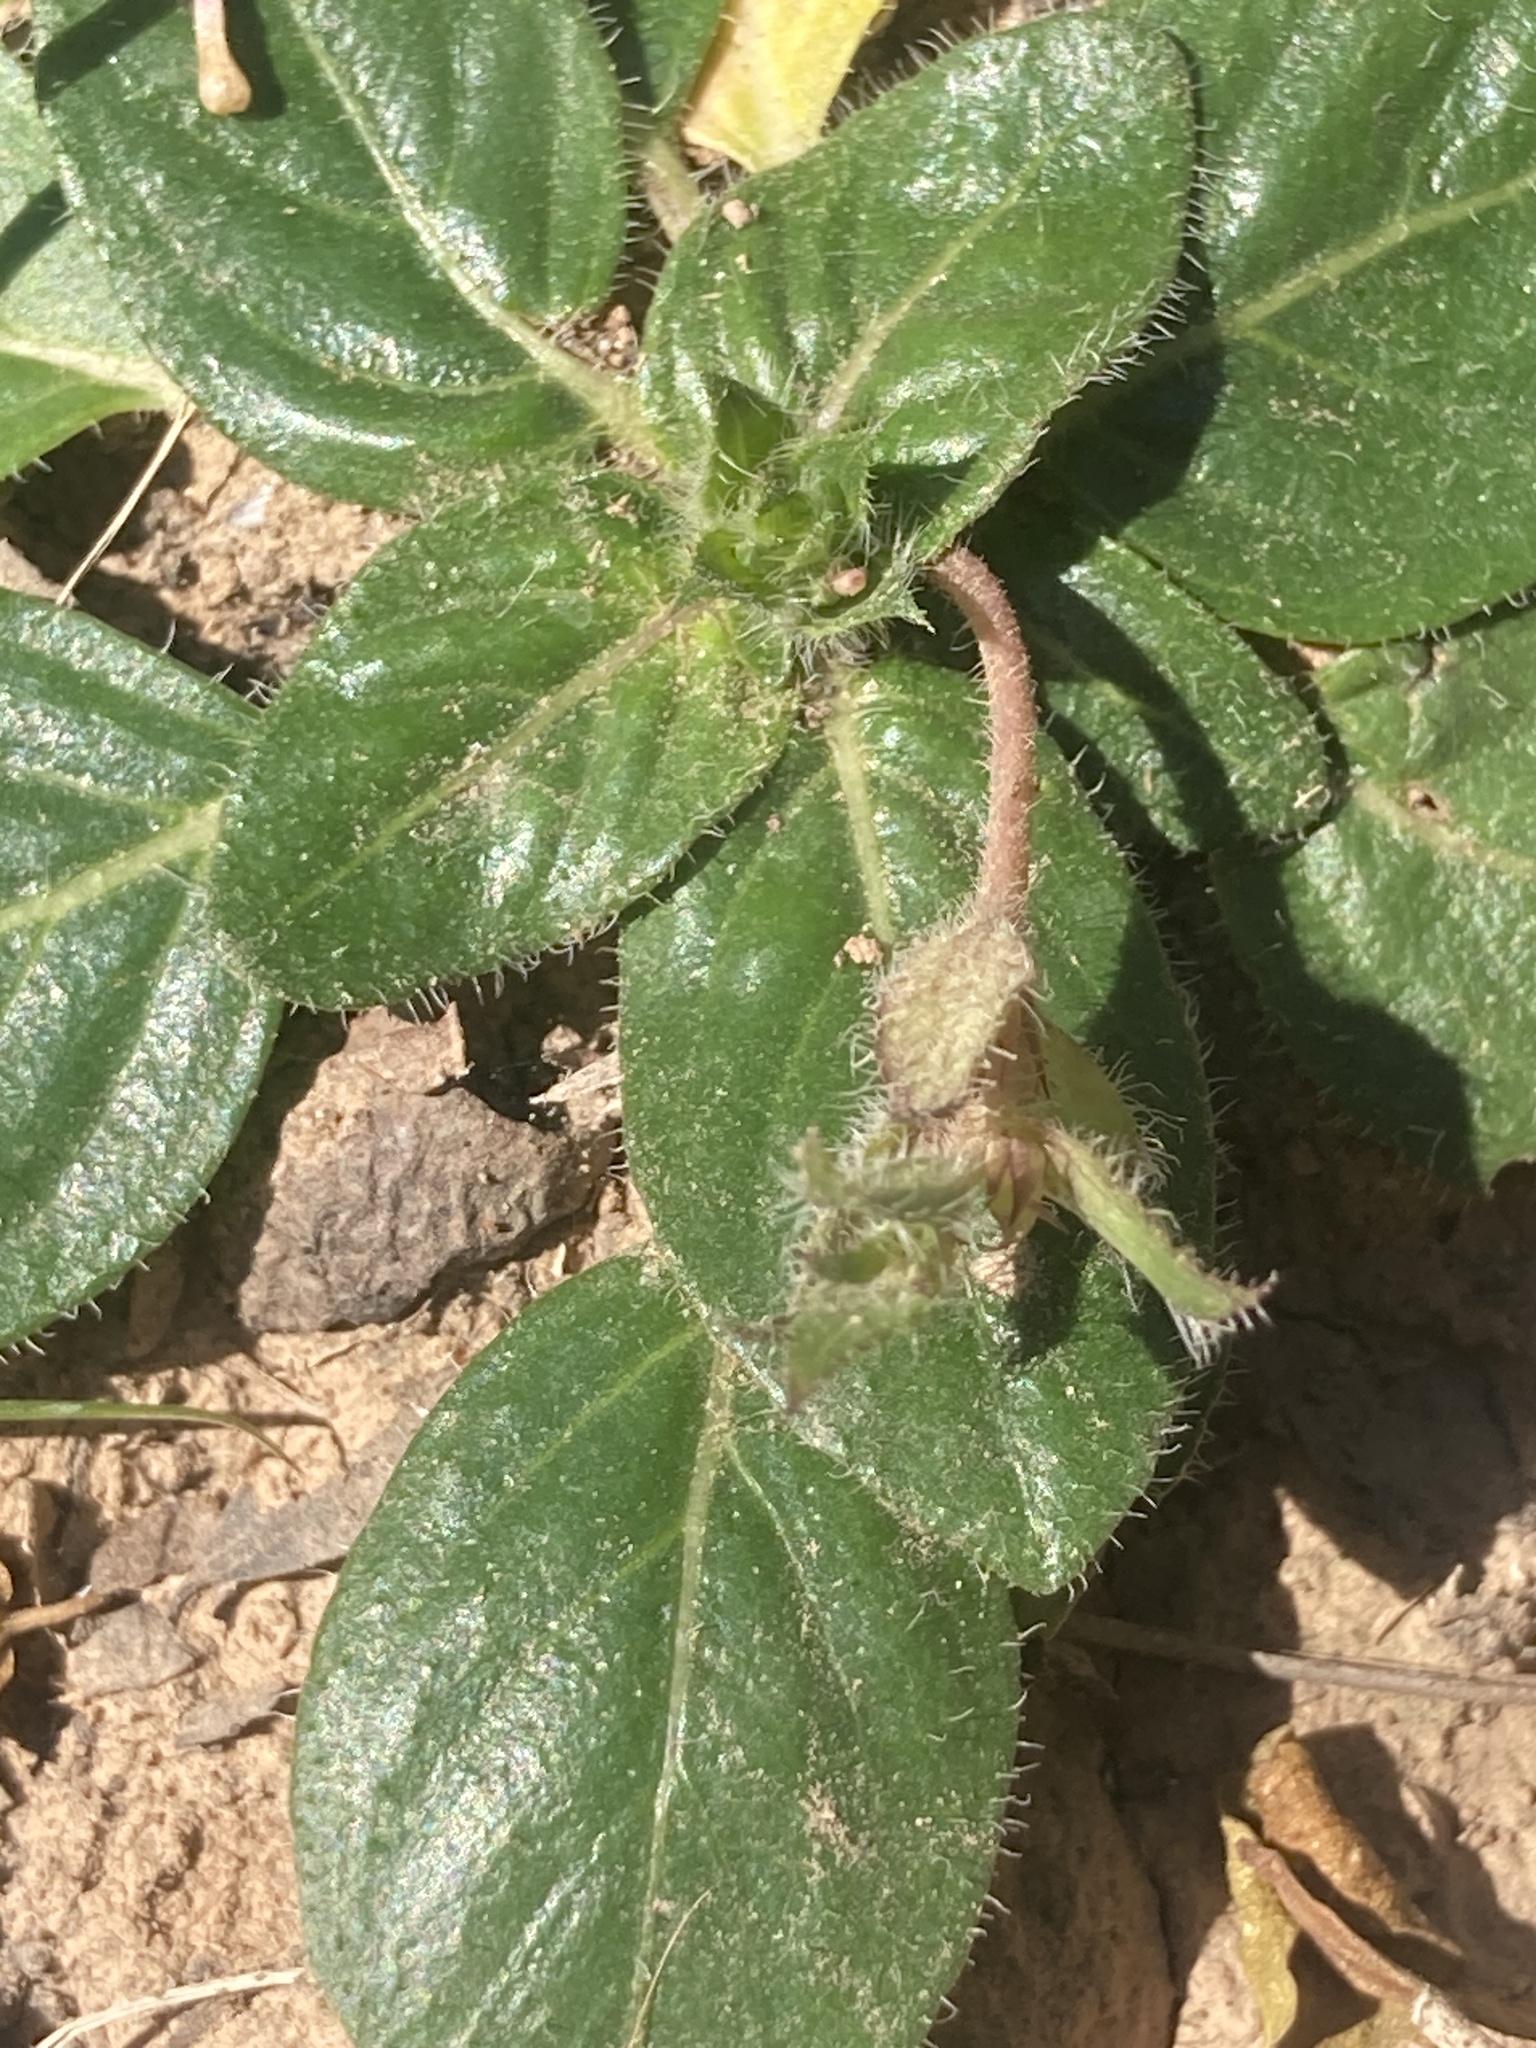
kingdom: Plantae
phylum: Tracheophyta
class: Magnoliopsida
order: Lamiales
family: Acanthaceae
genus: Stenandrium
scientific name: Stenandrium dulce
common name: Pinklet
